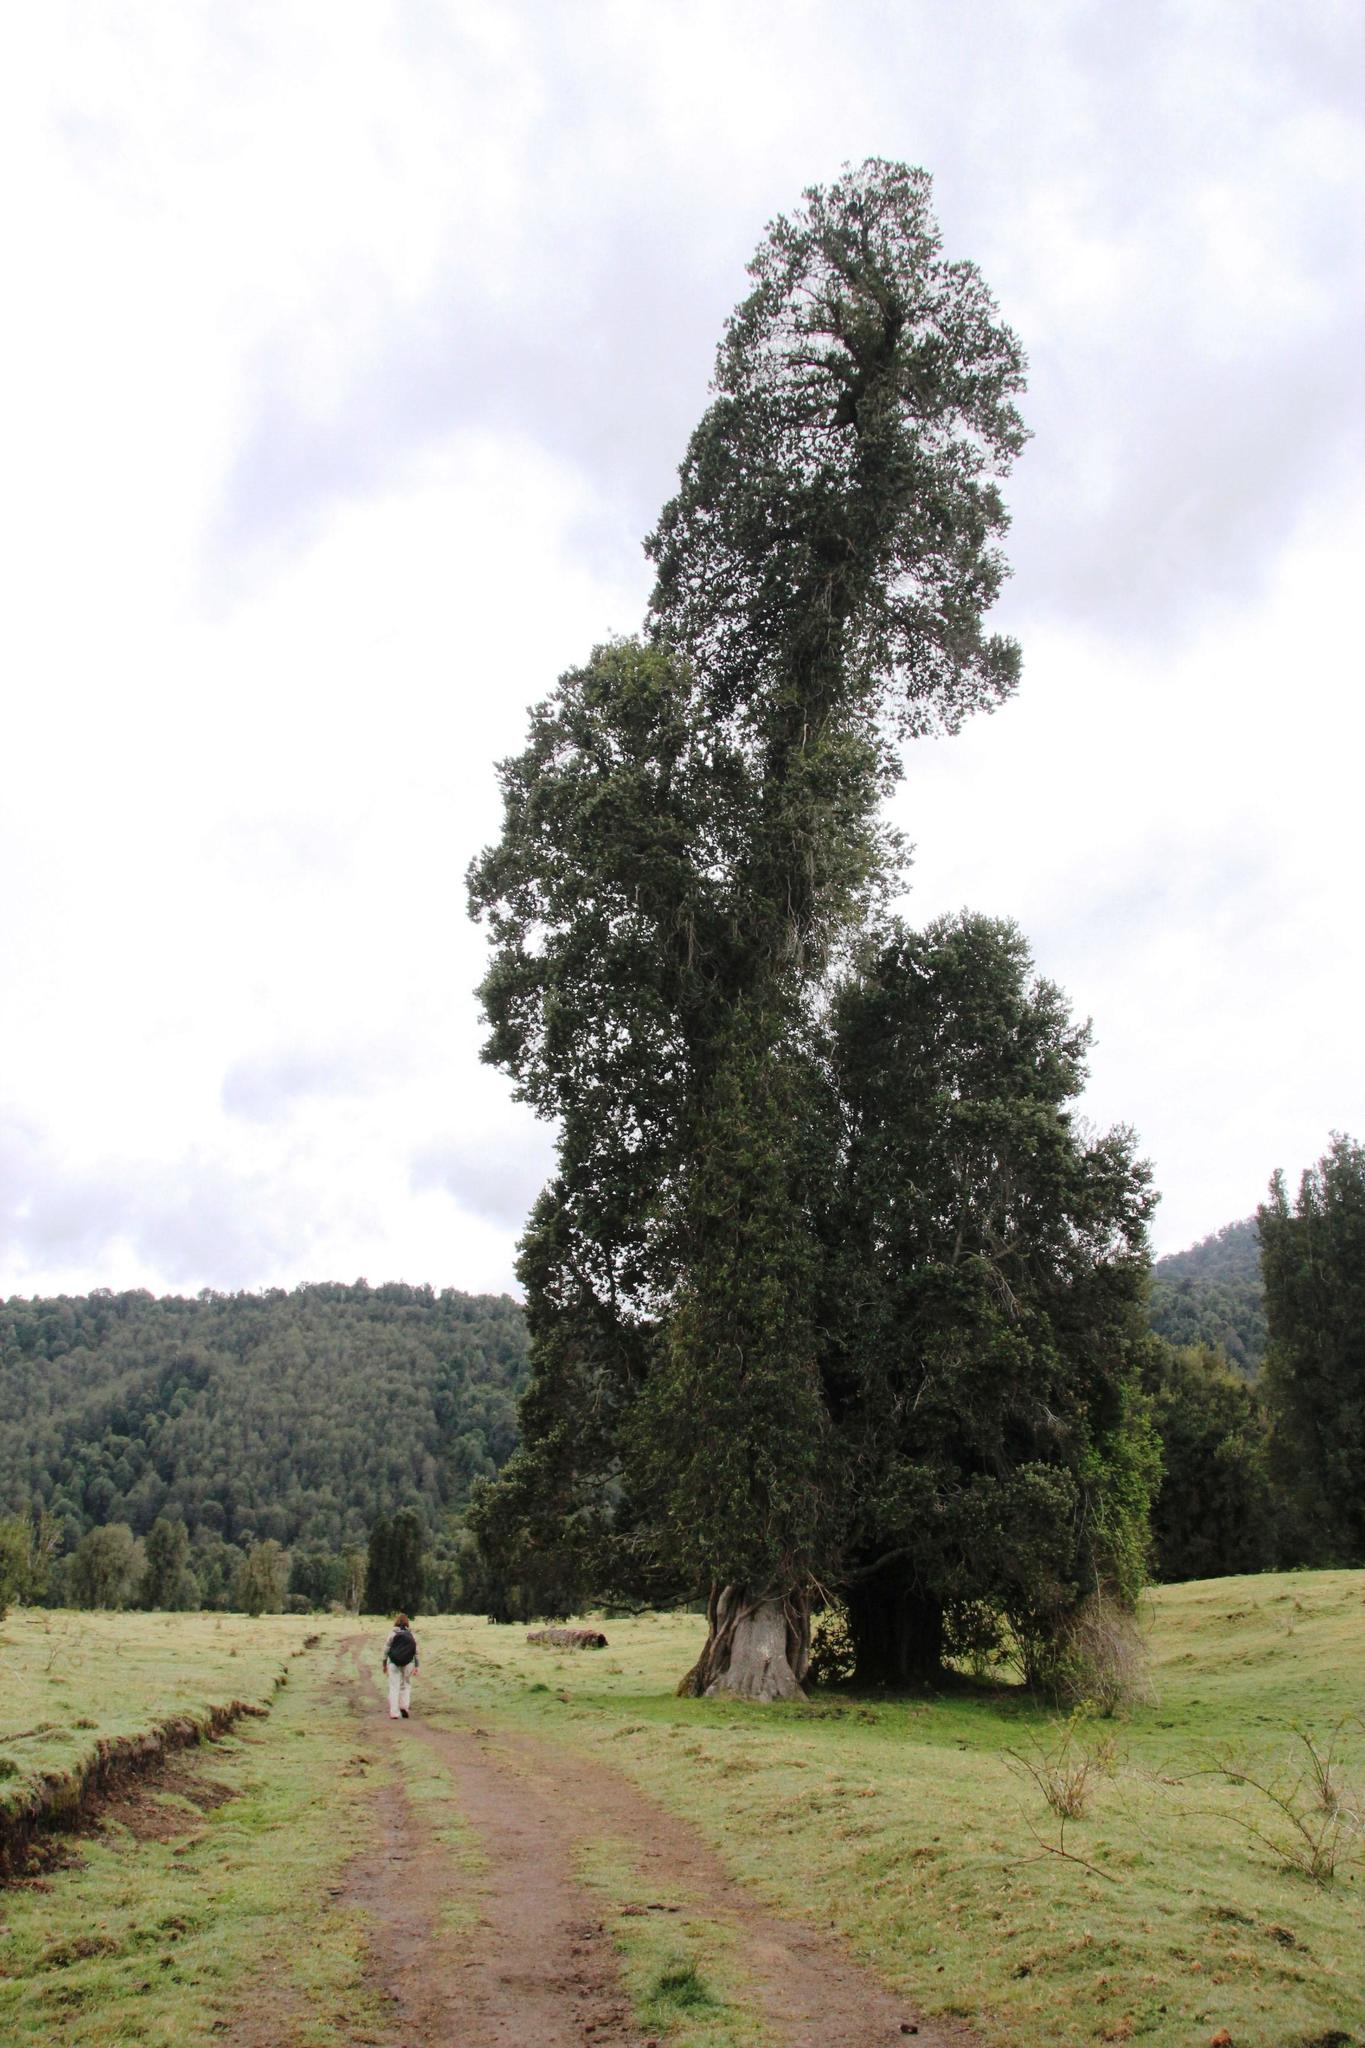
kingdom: Plantae
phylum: Tracheophyta
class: Magnoliopsida
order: Cornales
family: Hydrangeaceae
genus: Hydrangea
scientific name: Hydrangea serratifolia
